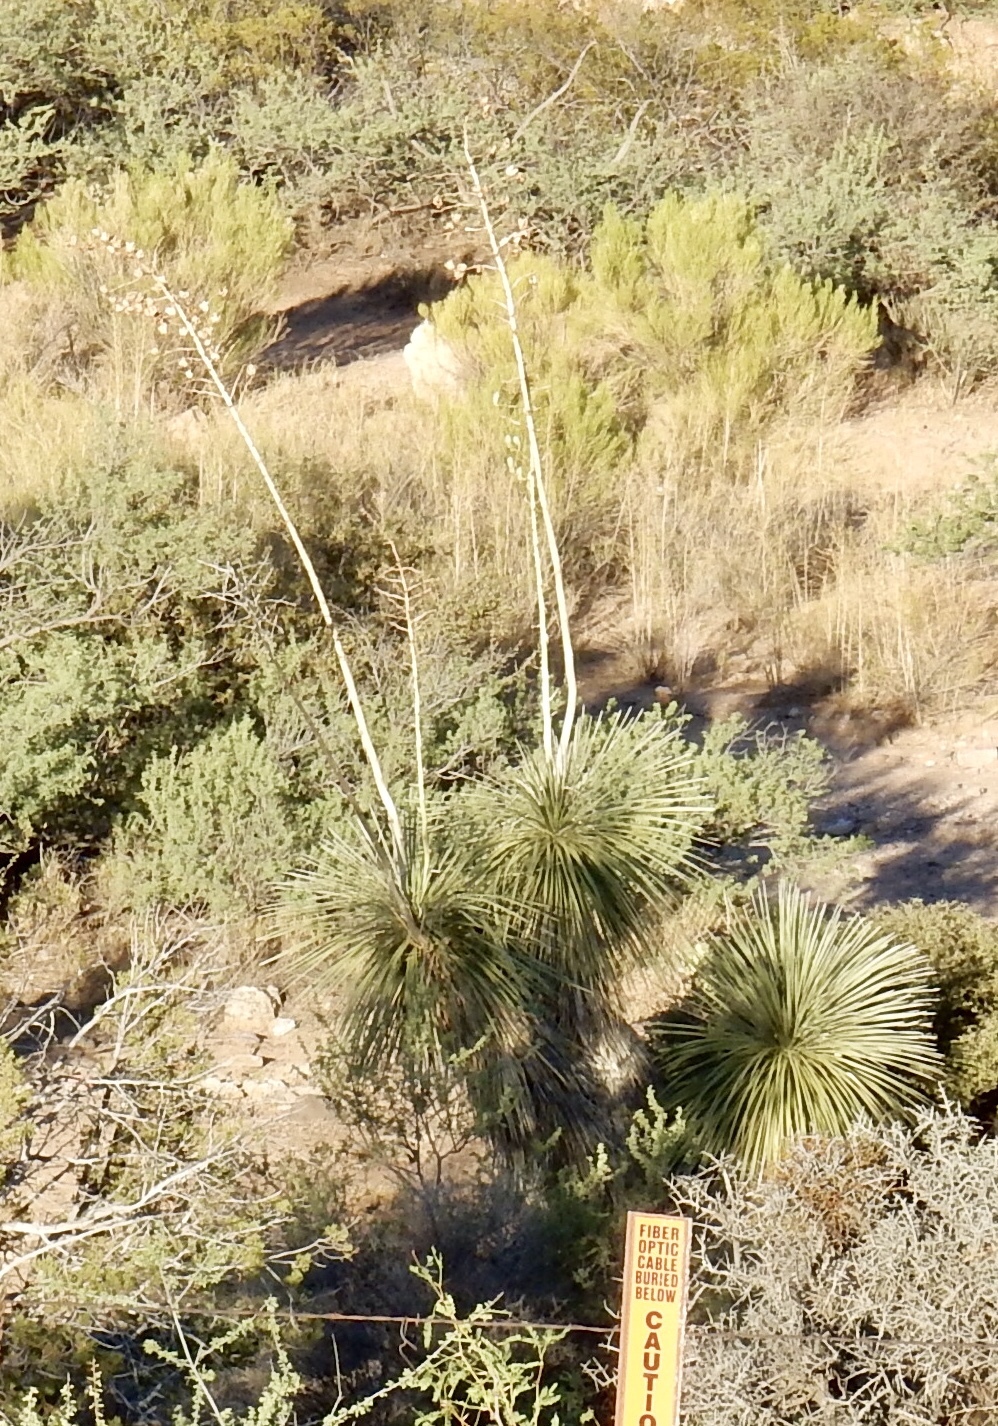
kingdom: Plantae
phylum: Tracheophyta
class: Liliopsida
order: Asparagales
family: Asparagaceae
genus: Yucca
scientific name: Yucca elata
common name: Palmella
